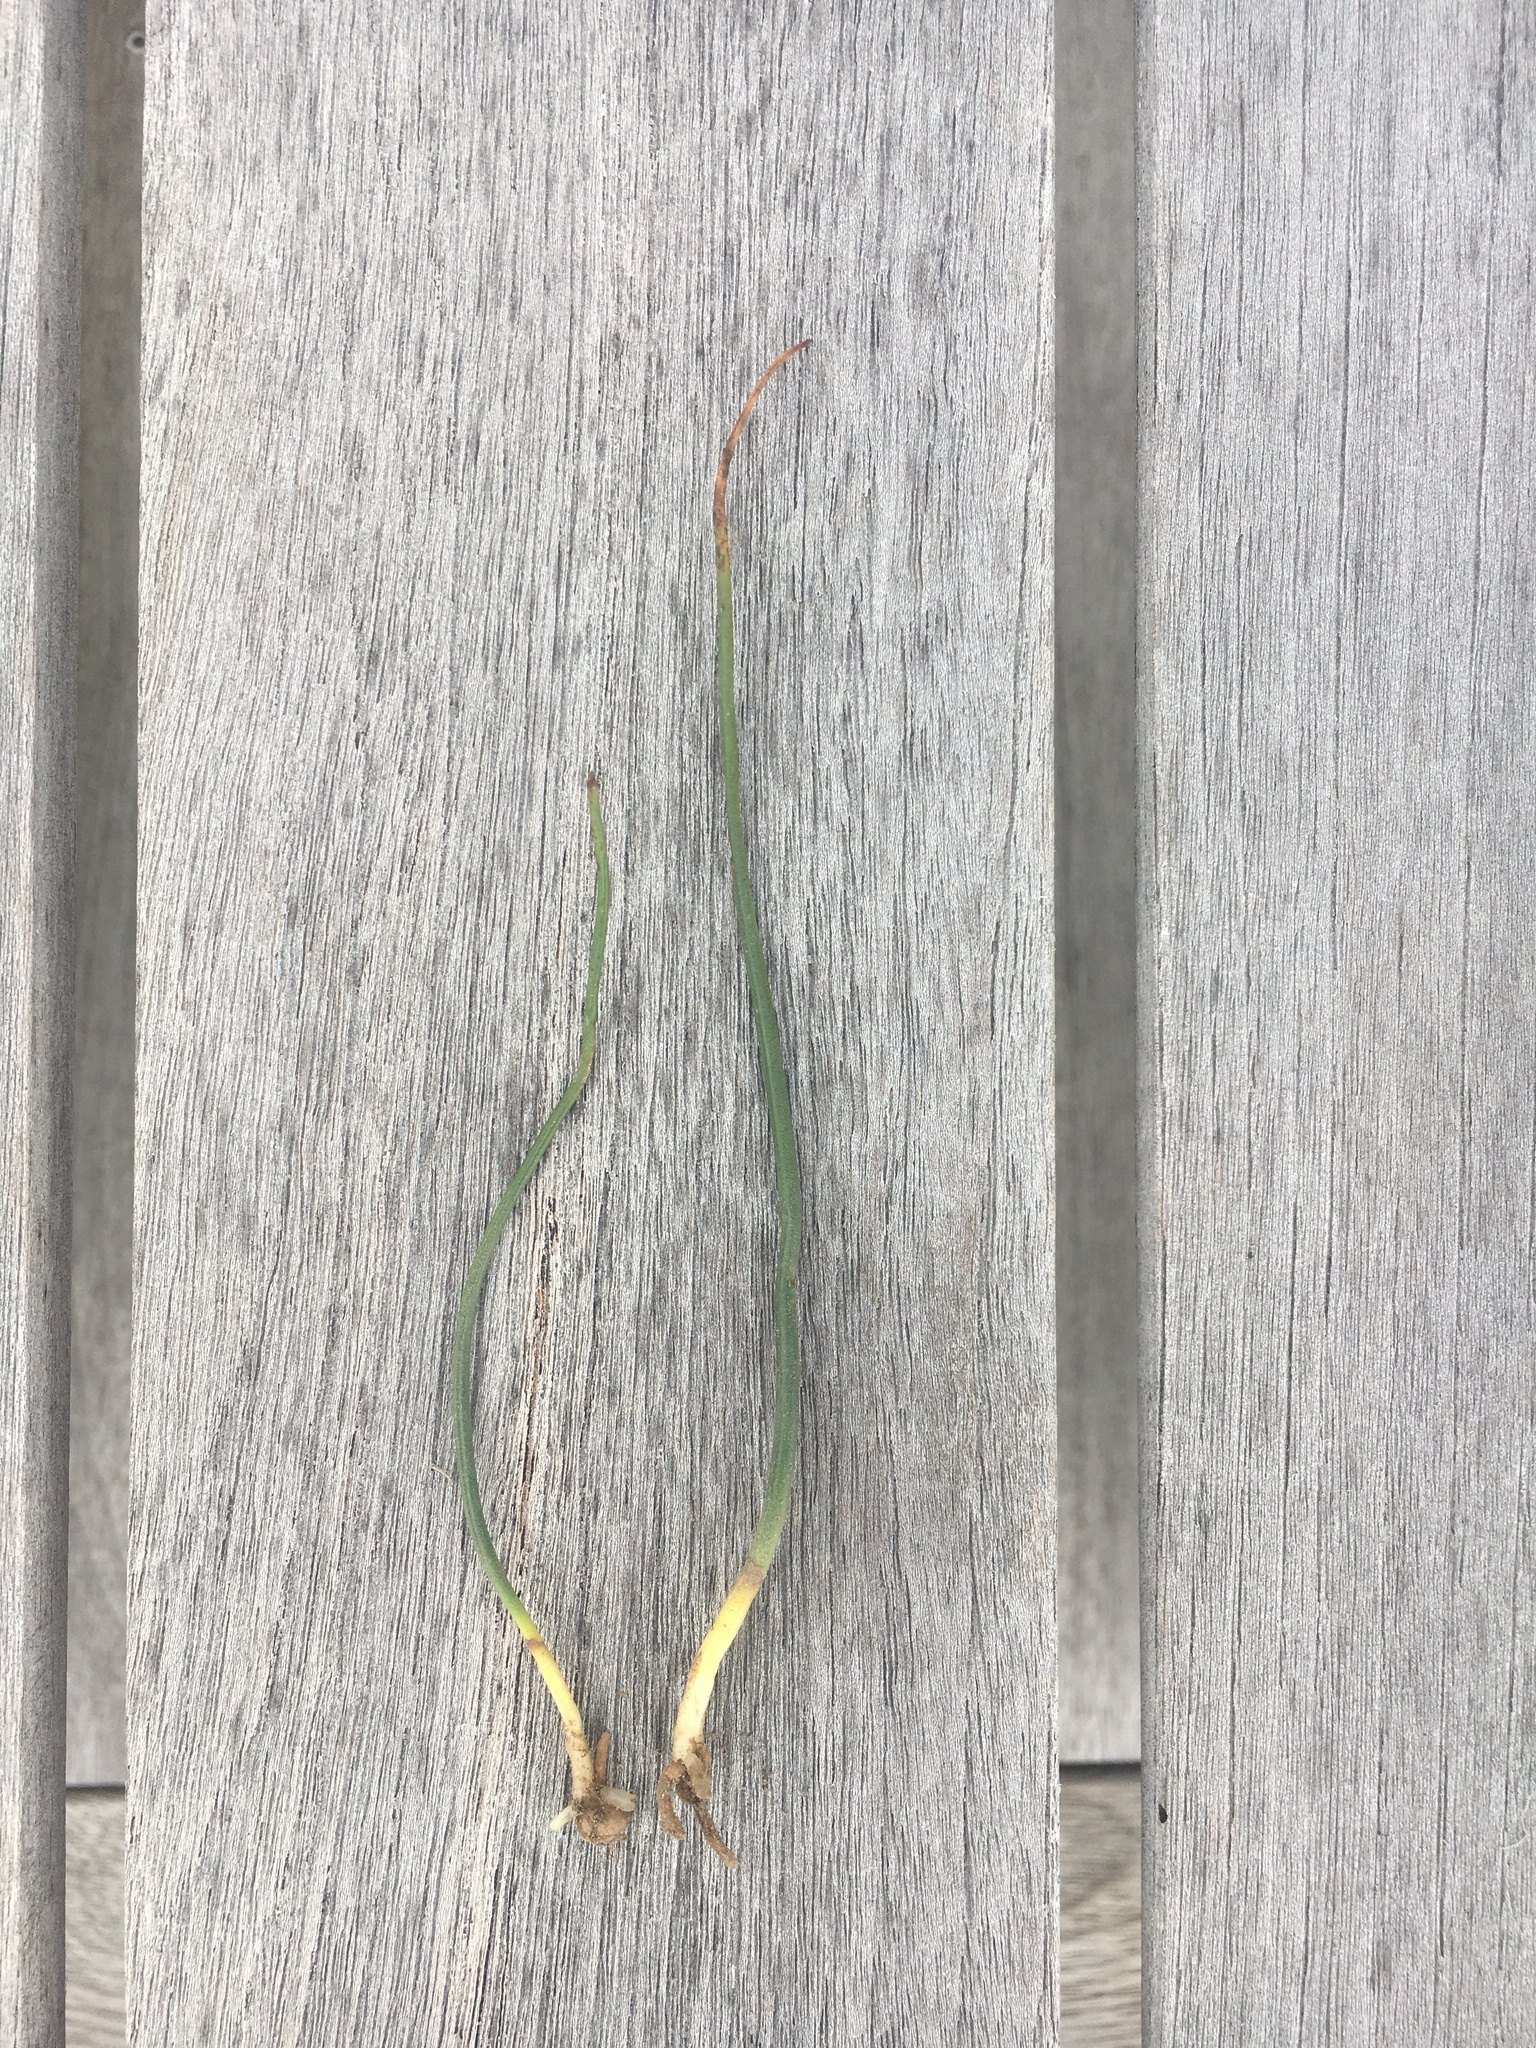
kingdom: Plantae
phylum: Tracheophyta
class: Liliopsida
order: Asparagales
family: Orchidaceae
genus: Microtis
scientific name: Microtis unifolia
